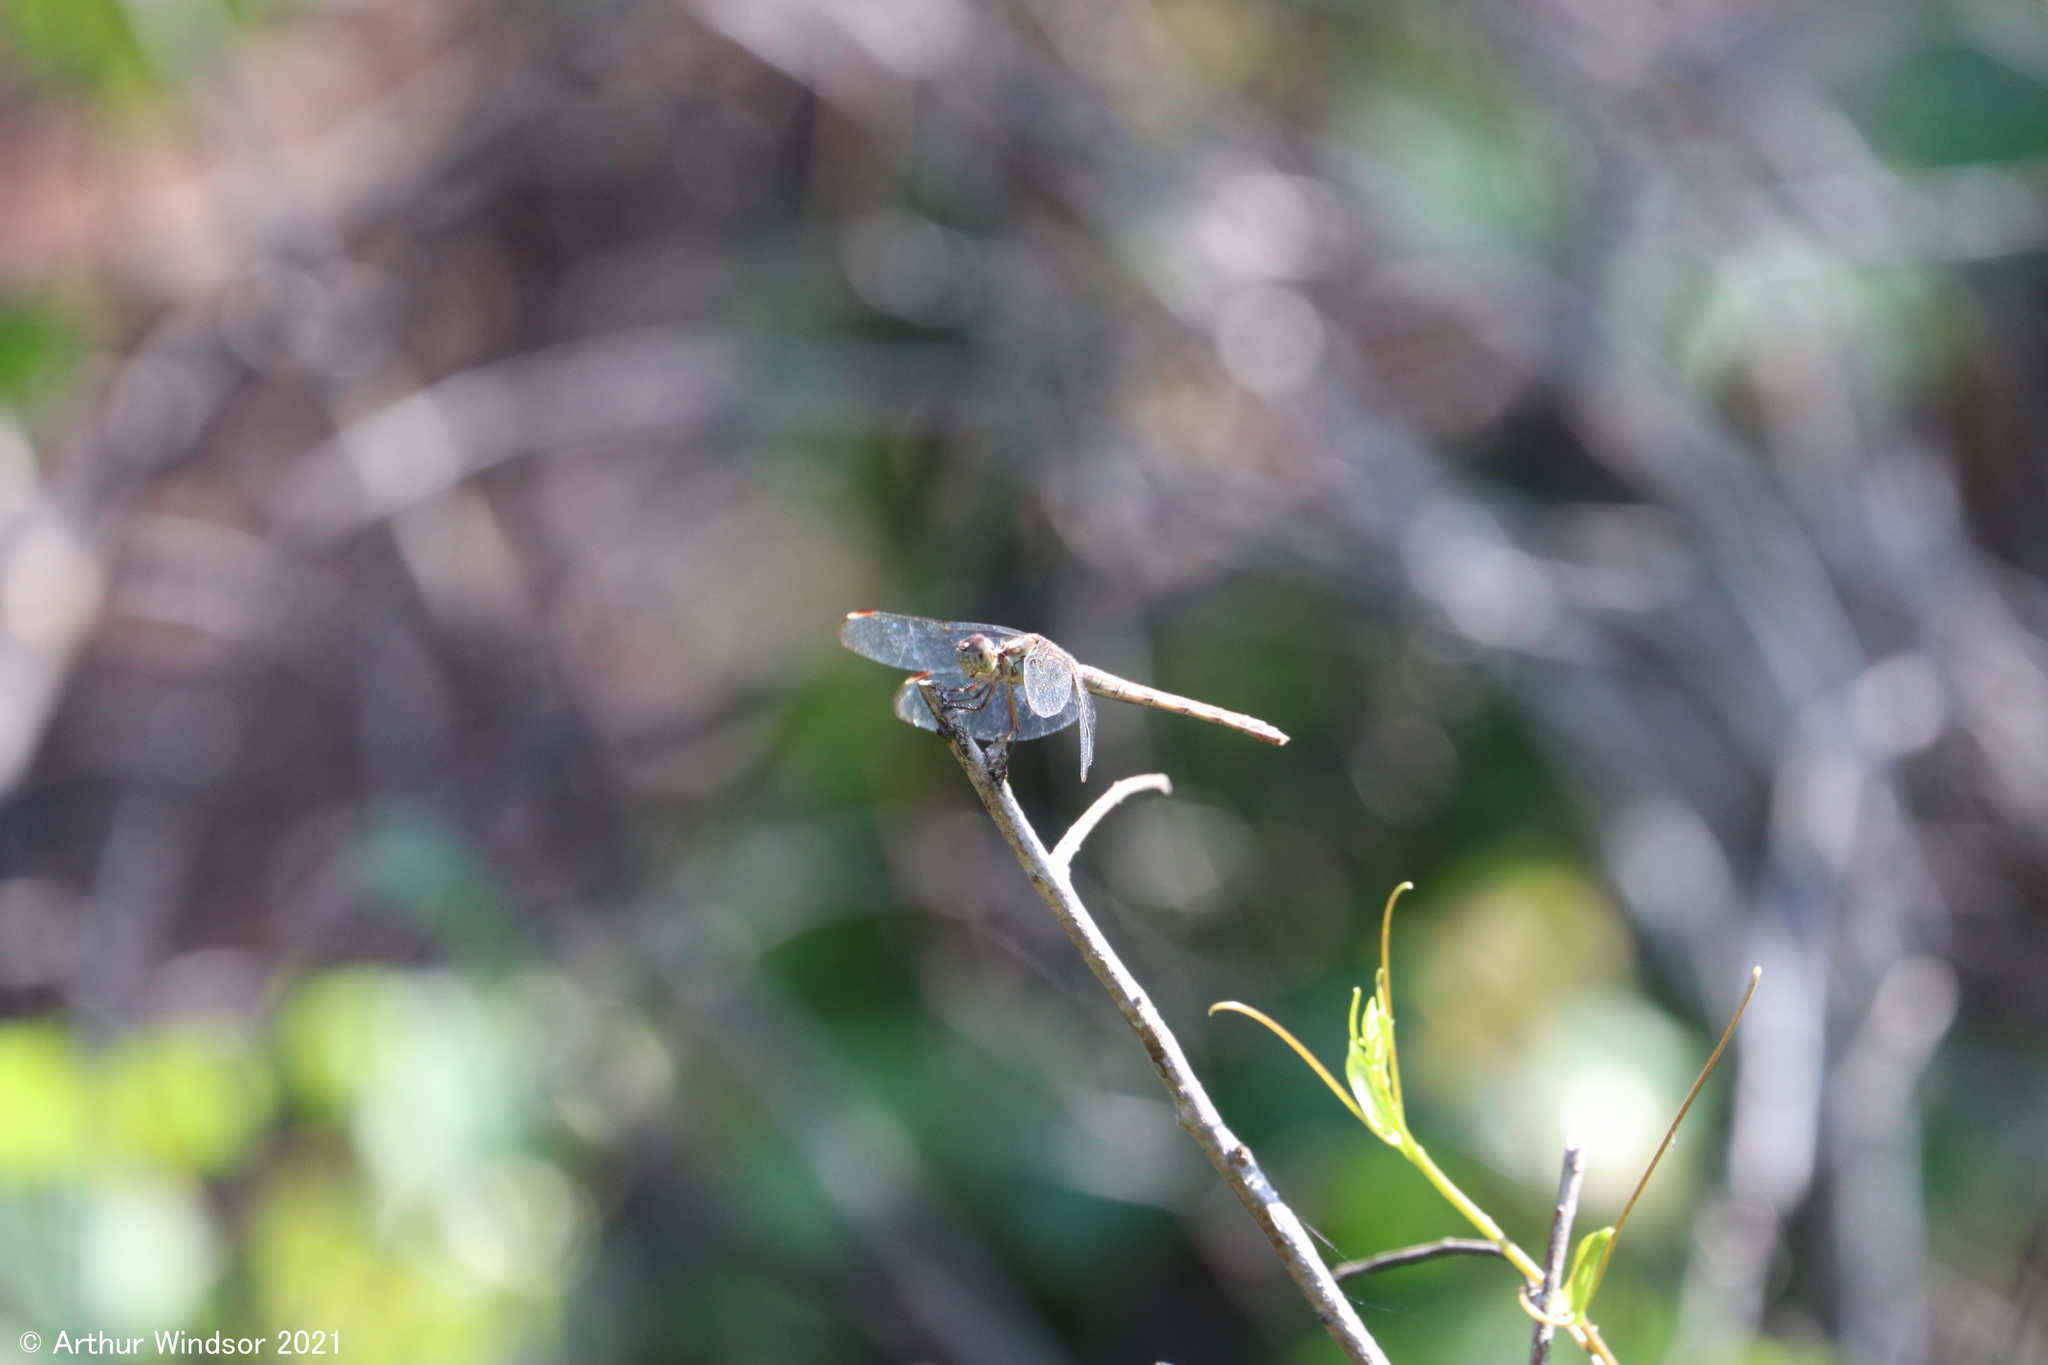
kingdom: Animalia
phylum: Arthropoda
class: Insecta
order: Odonata
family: Libellulidae
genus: Erythrodiplax
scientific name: Erythrodiplax umbrata
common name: Band-winged dragonlet
